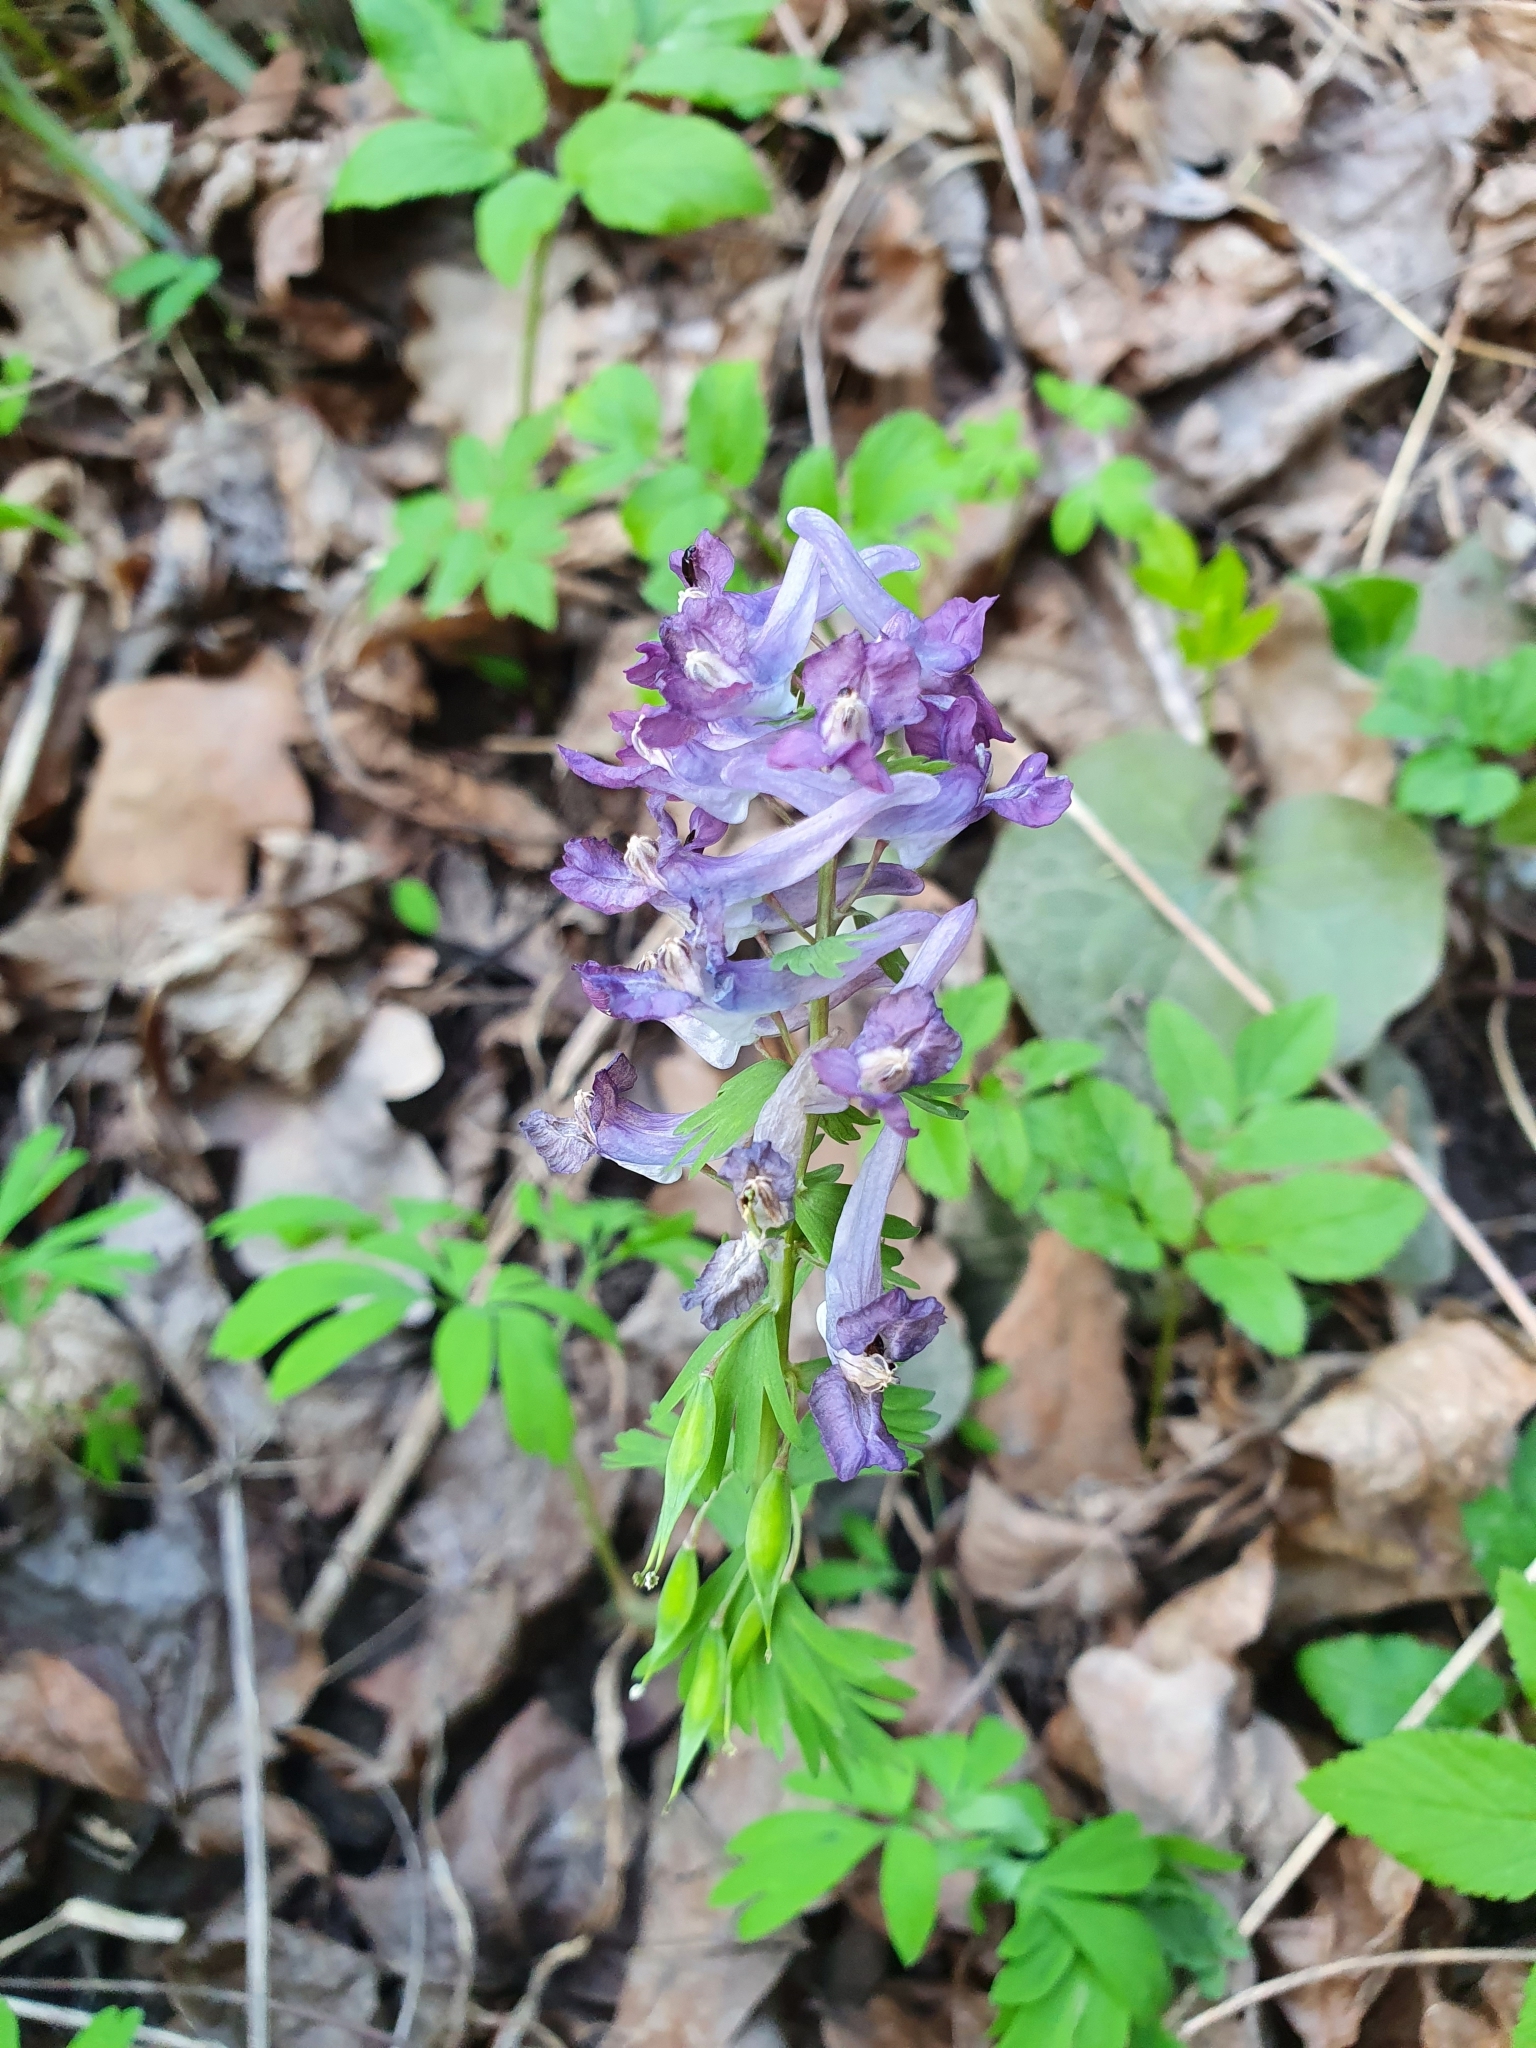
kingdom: Plantae
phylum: Tracheophyta
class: Magnoliopsida
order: Ranunculales
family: Papaveraceae
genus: Corydalis
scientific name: Corydalis solida
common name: Bird-in-a-bush
